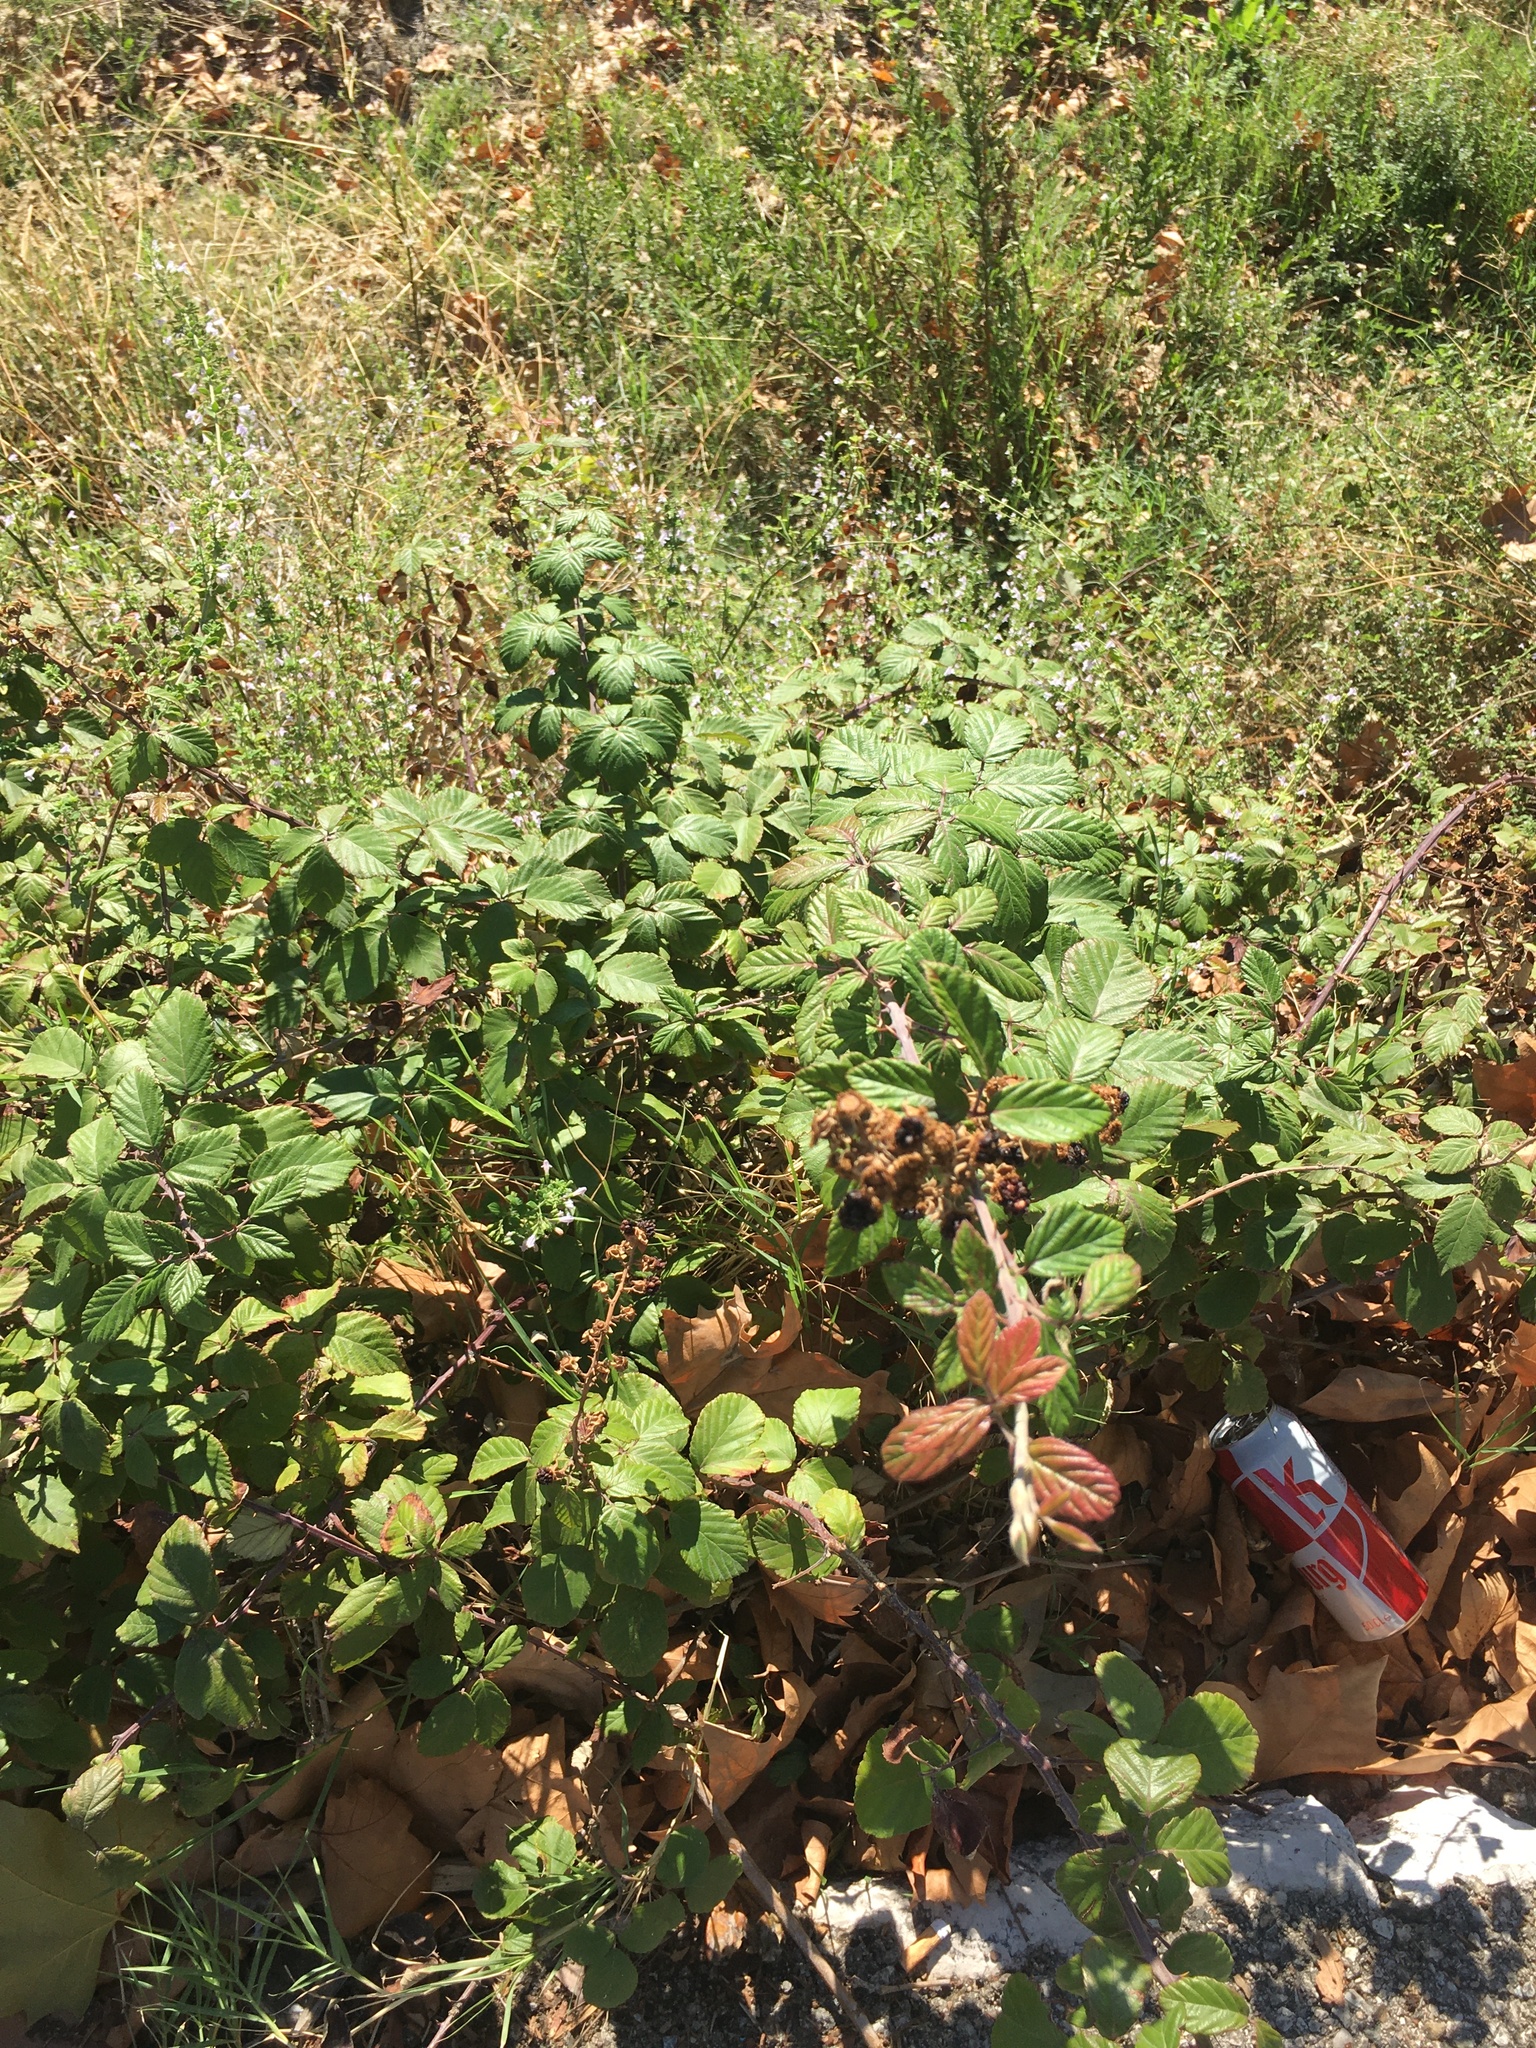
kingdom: Plantae
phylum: Tracheophyta
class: Magnoliopsida
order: Rosales
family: Rosaceae
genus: Rubus
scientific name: Rubus ulmifolius
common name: Elmleaf blackberry
